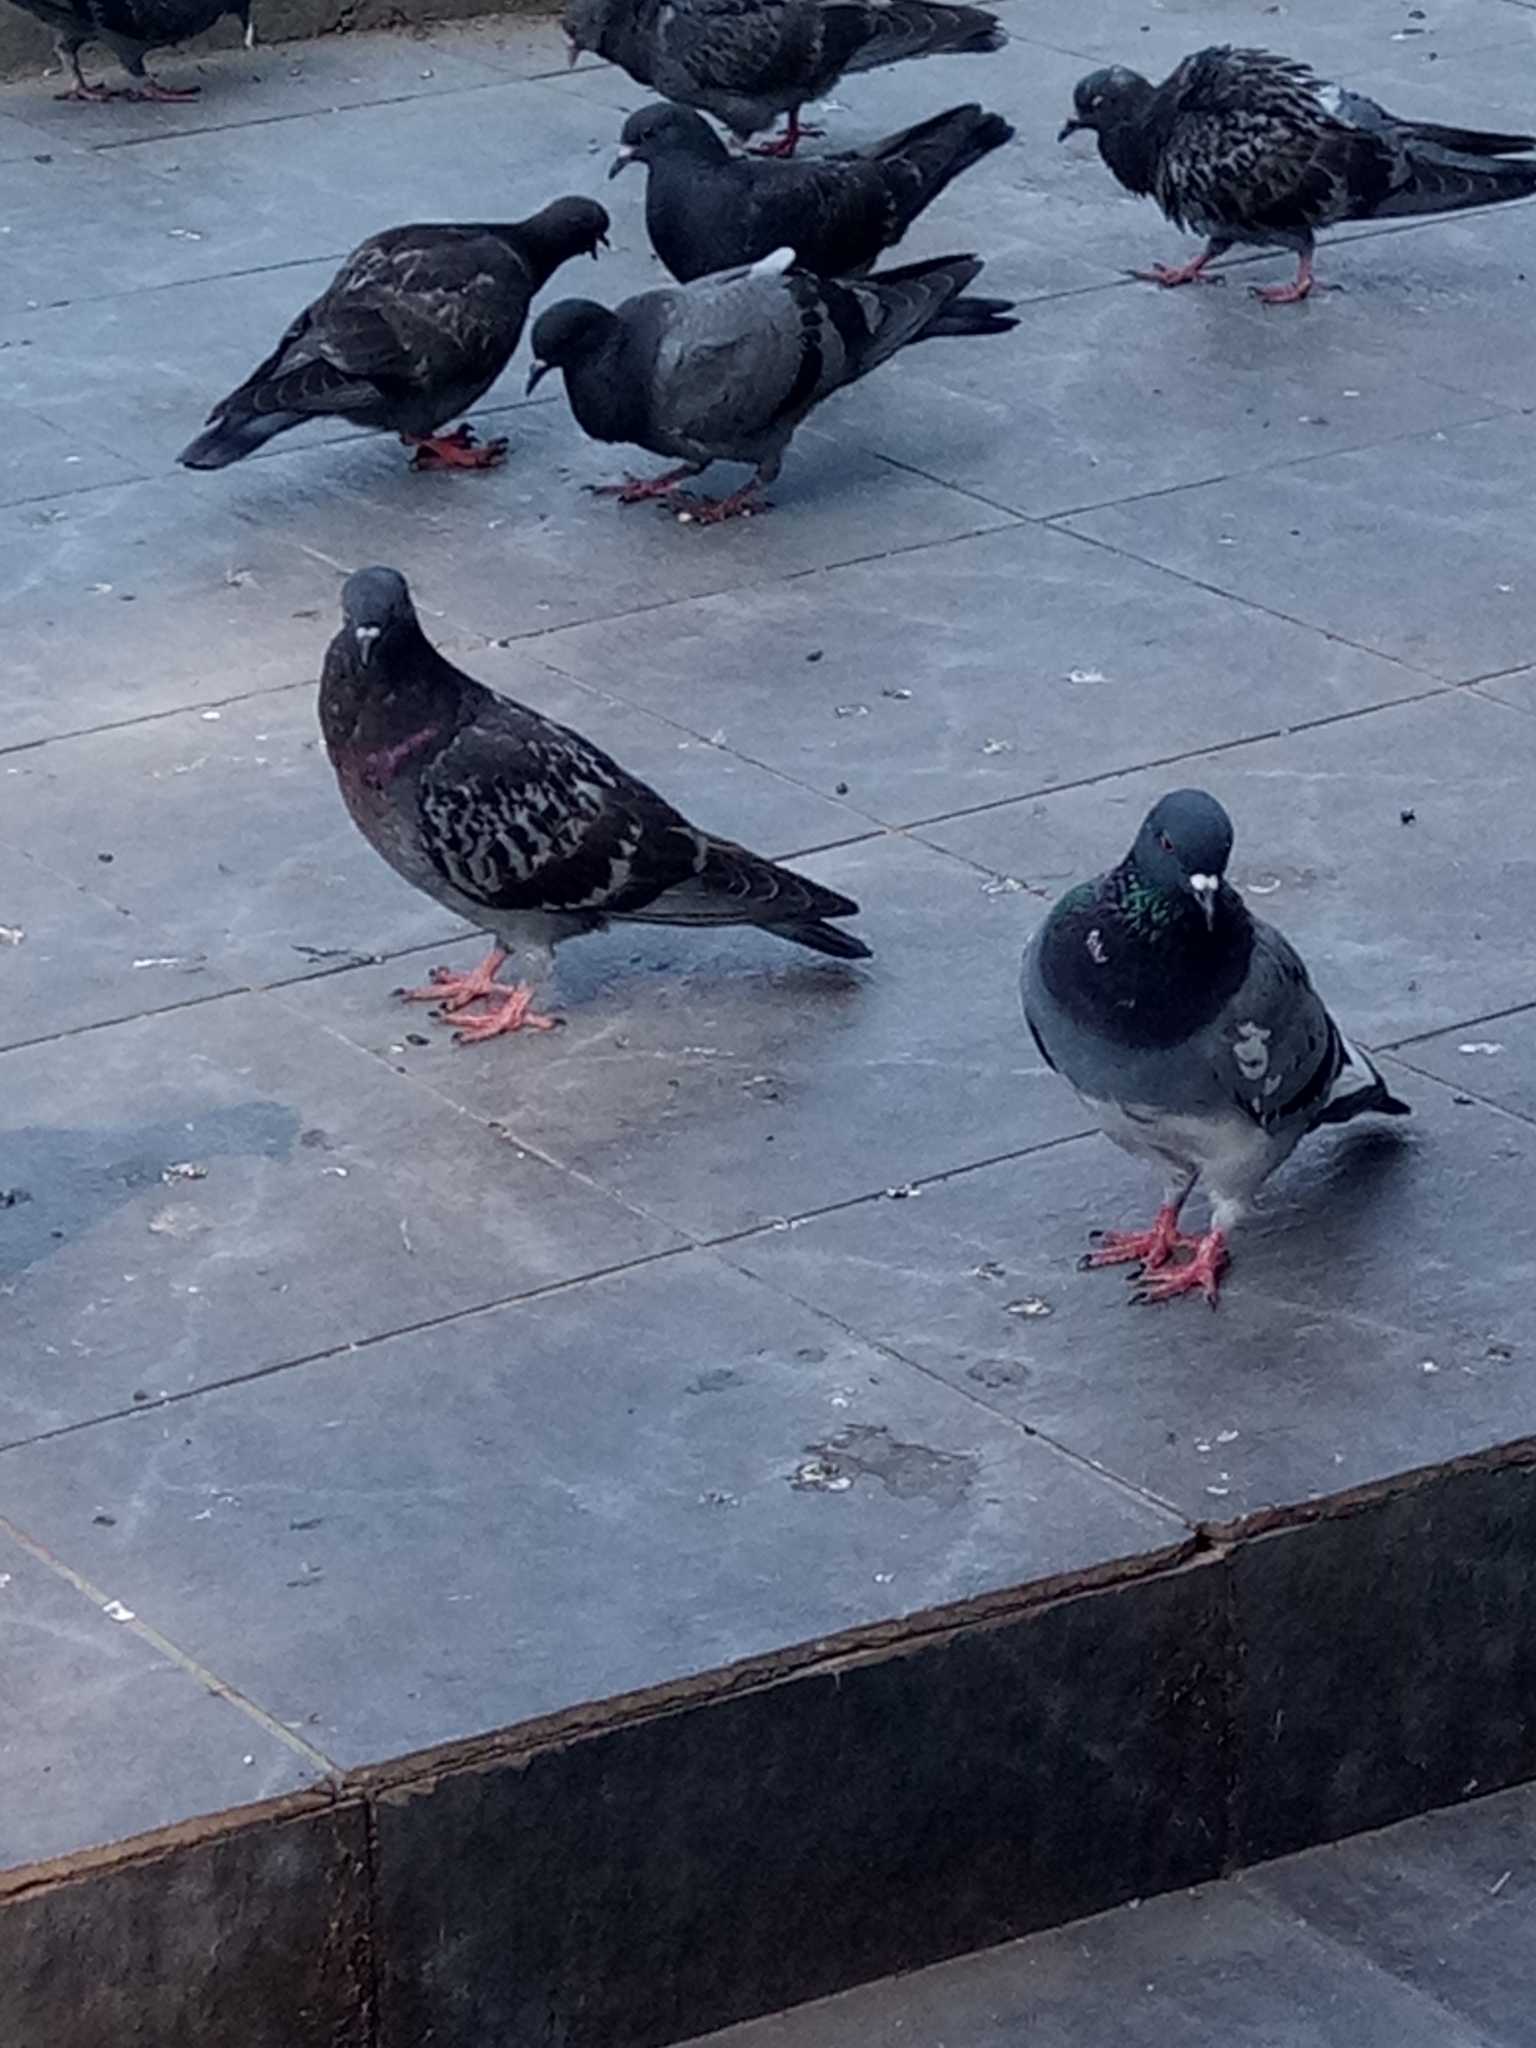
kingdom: Animalia
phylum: Chordata
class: Aves
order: Columbiformes
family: Columbidae
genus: Columba
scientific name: Columba livia
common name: Rock pigeon
